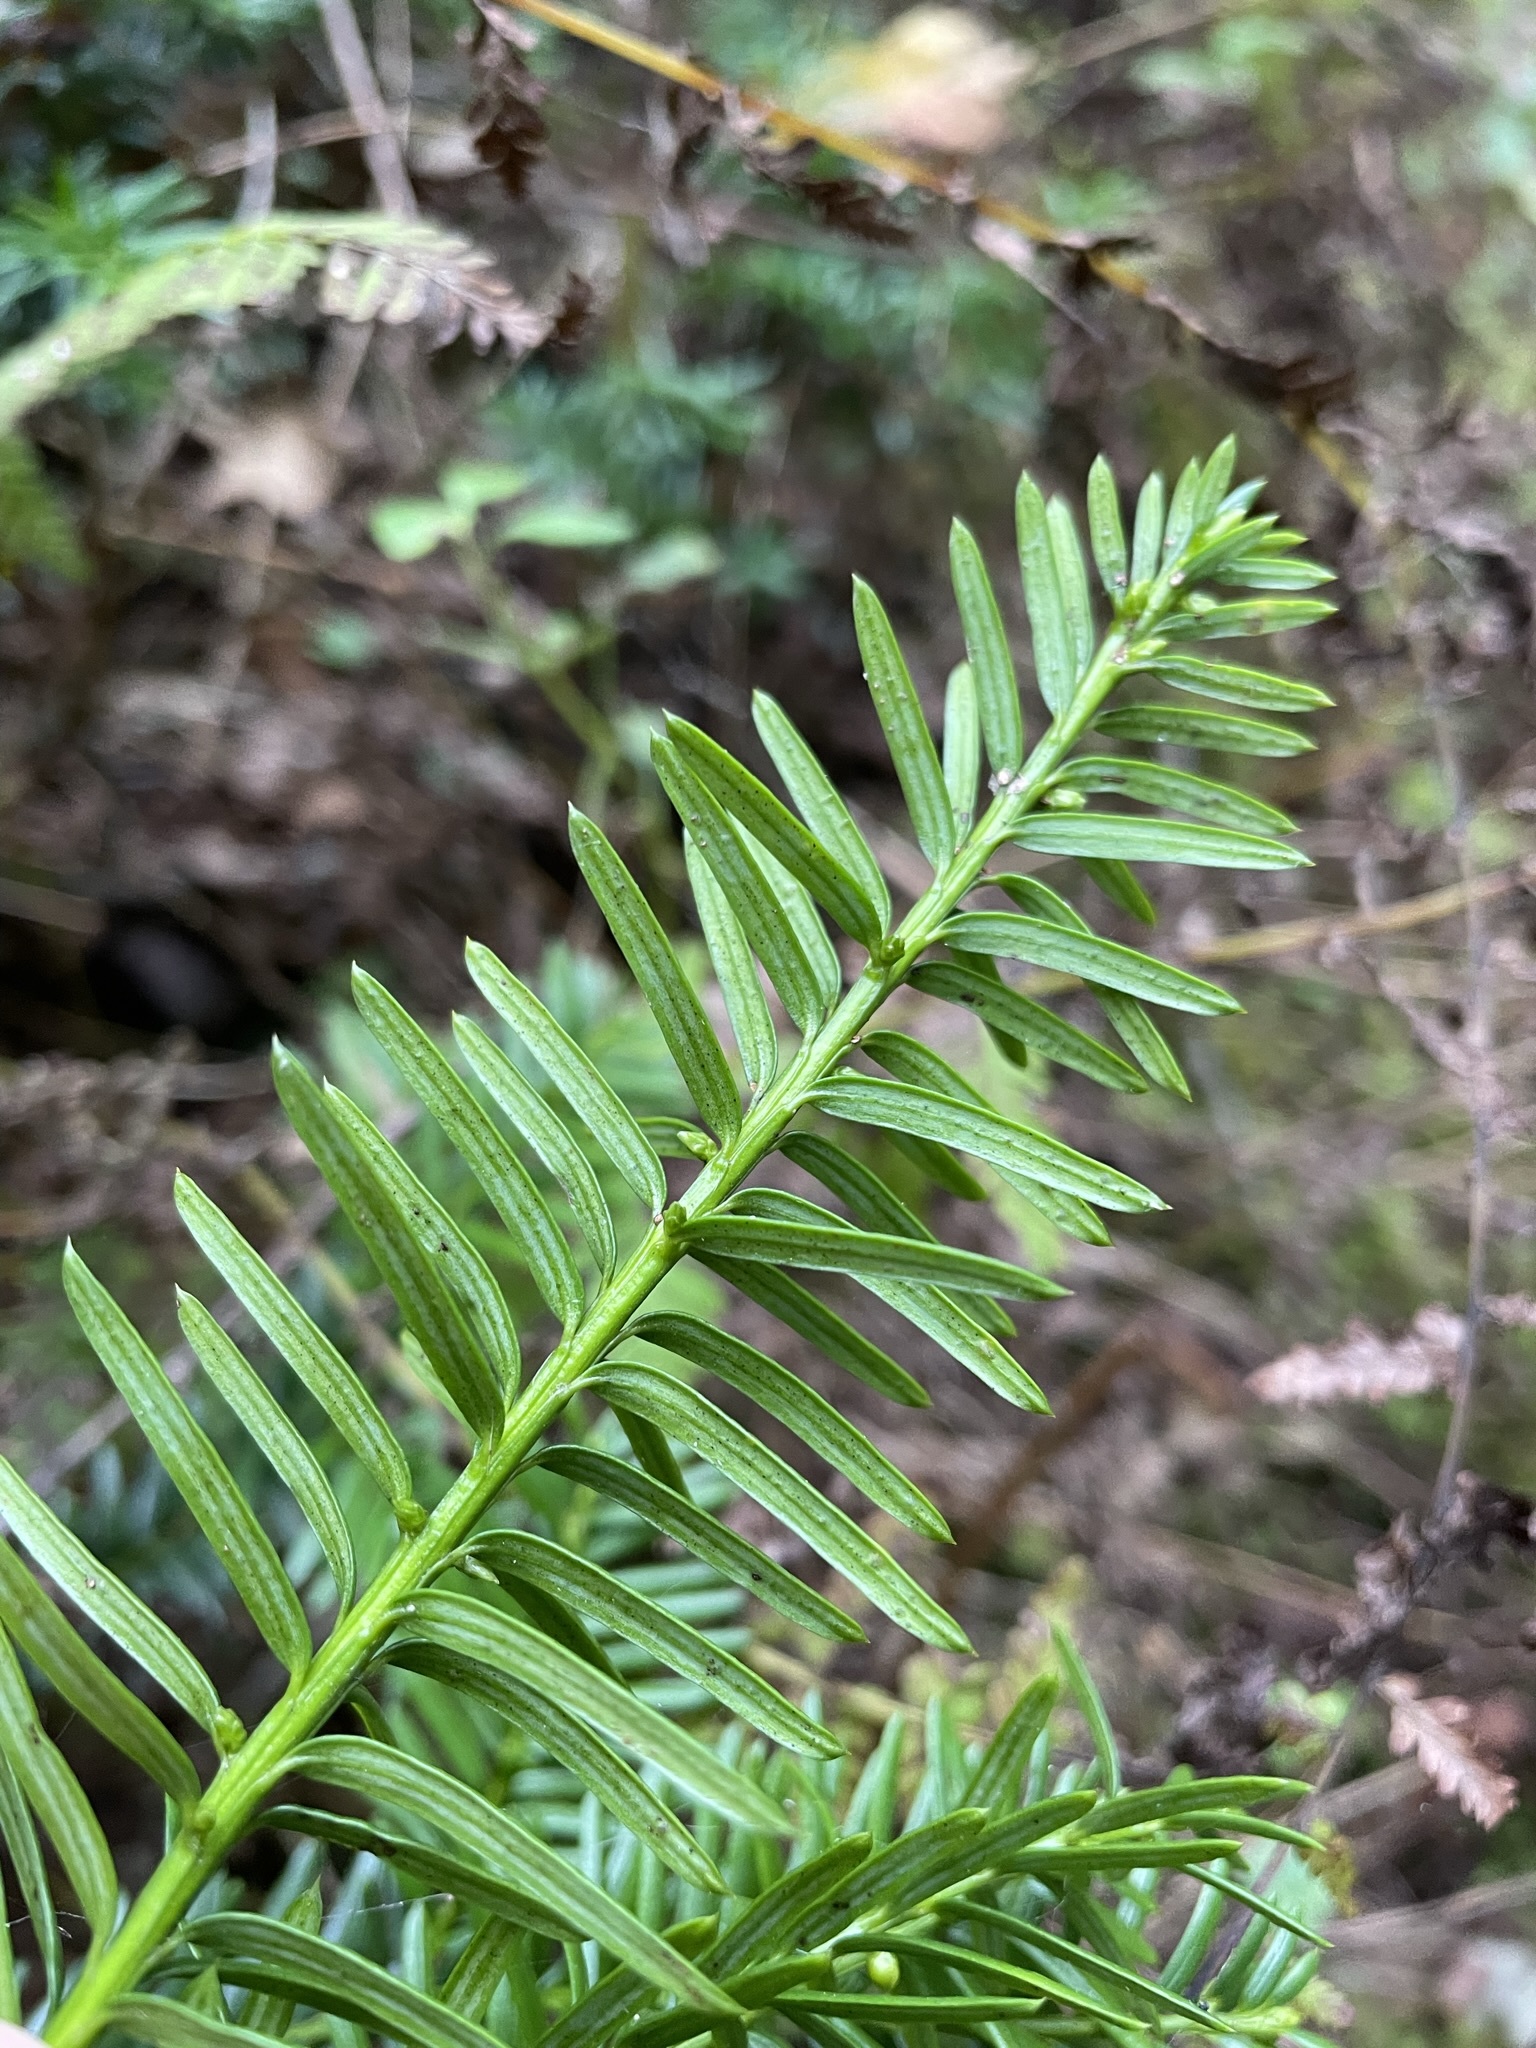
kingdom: Plantae
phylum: Tracheophyta
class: Pinopsida
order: Pinales
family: Taxaceae
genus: Taxus
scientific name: Taxus canadensis
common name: American yew
